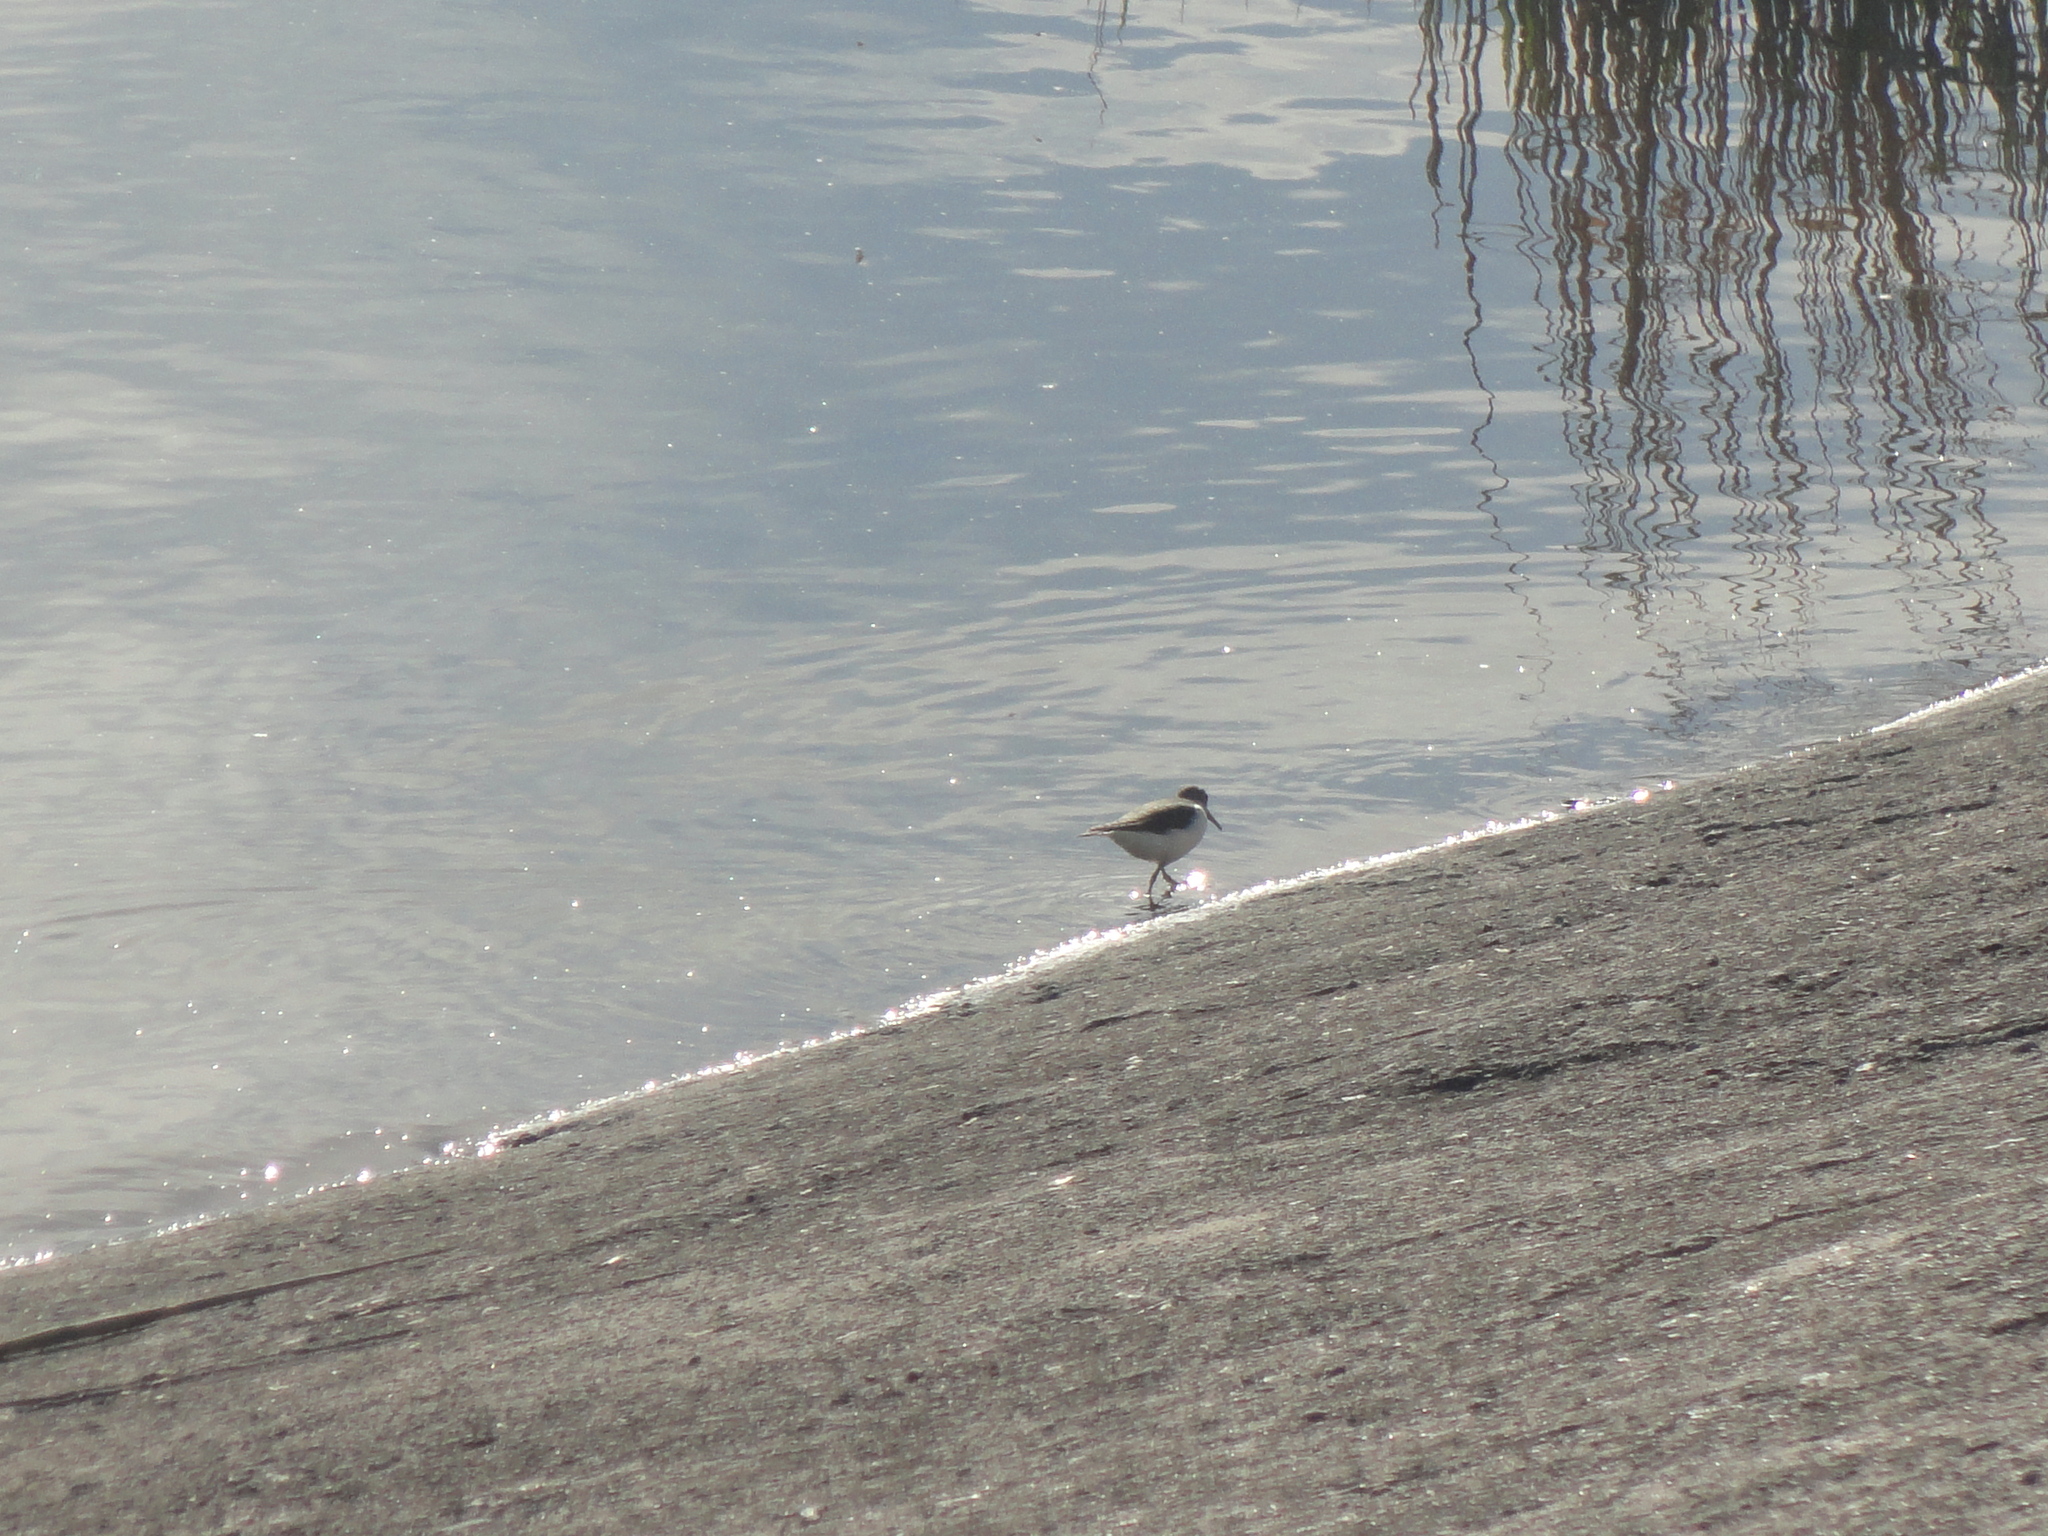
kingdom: Animalia
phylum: Chordata
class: Aves
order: Charadriiformes
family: Scolopacidae
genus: Actitis
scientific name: Actitis hypoleucos
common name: Common sandpiper
